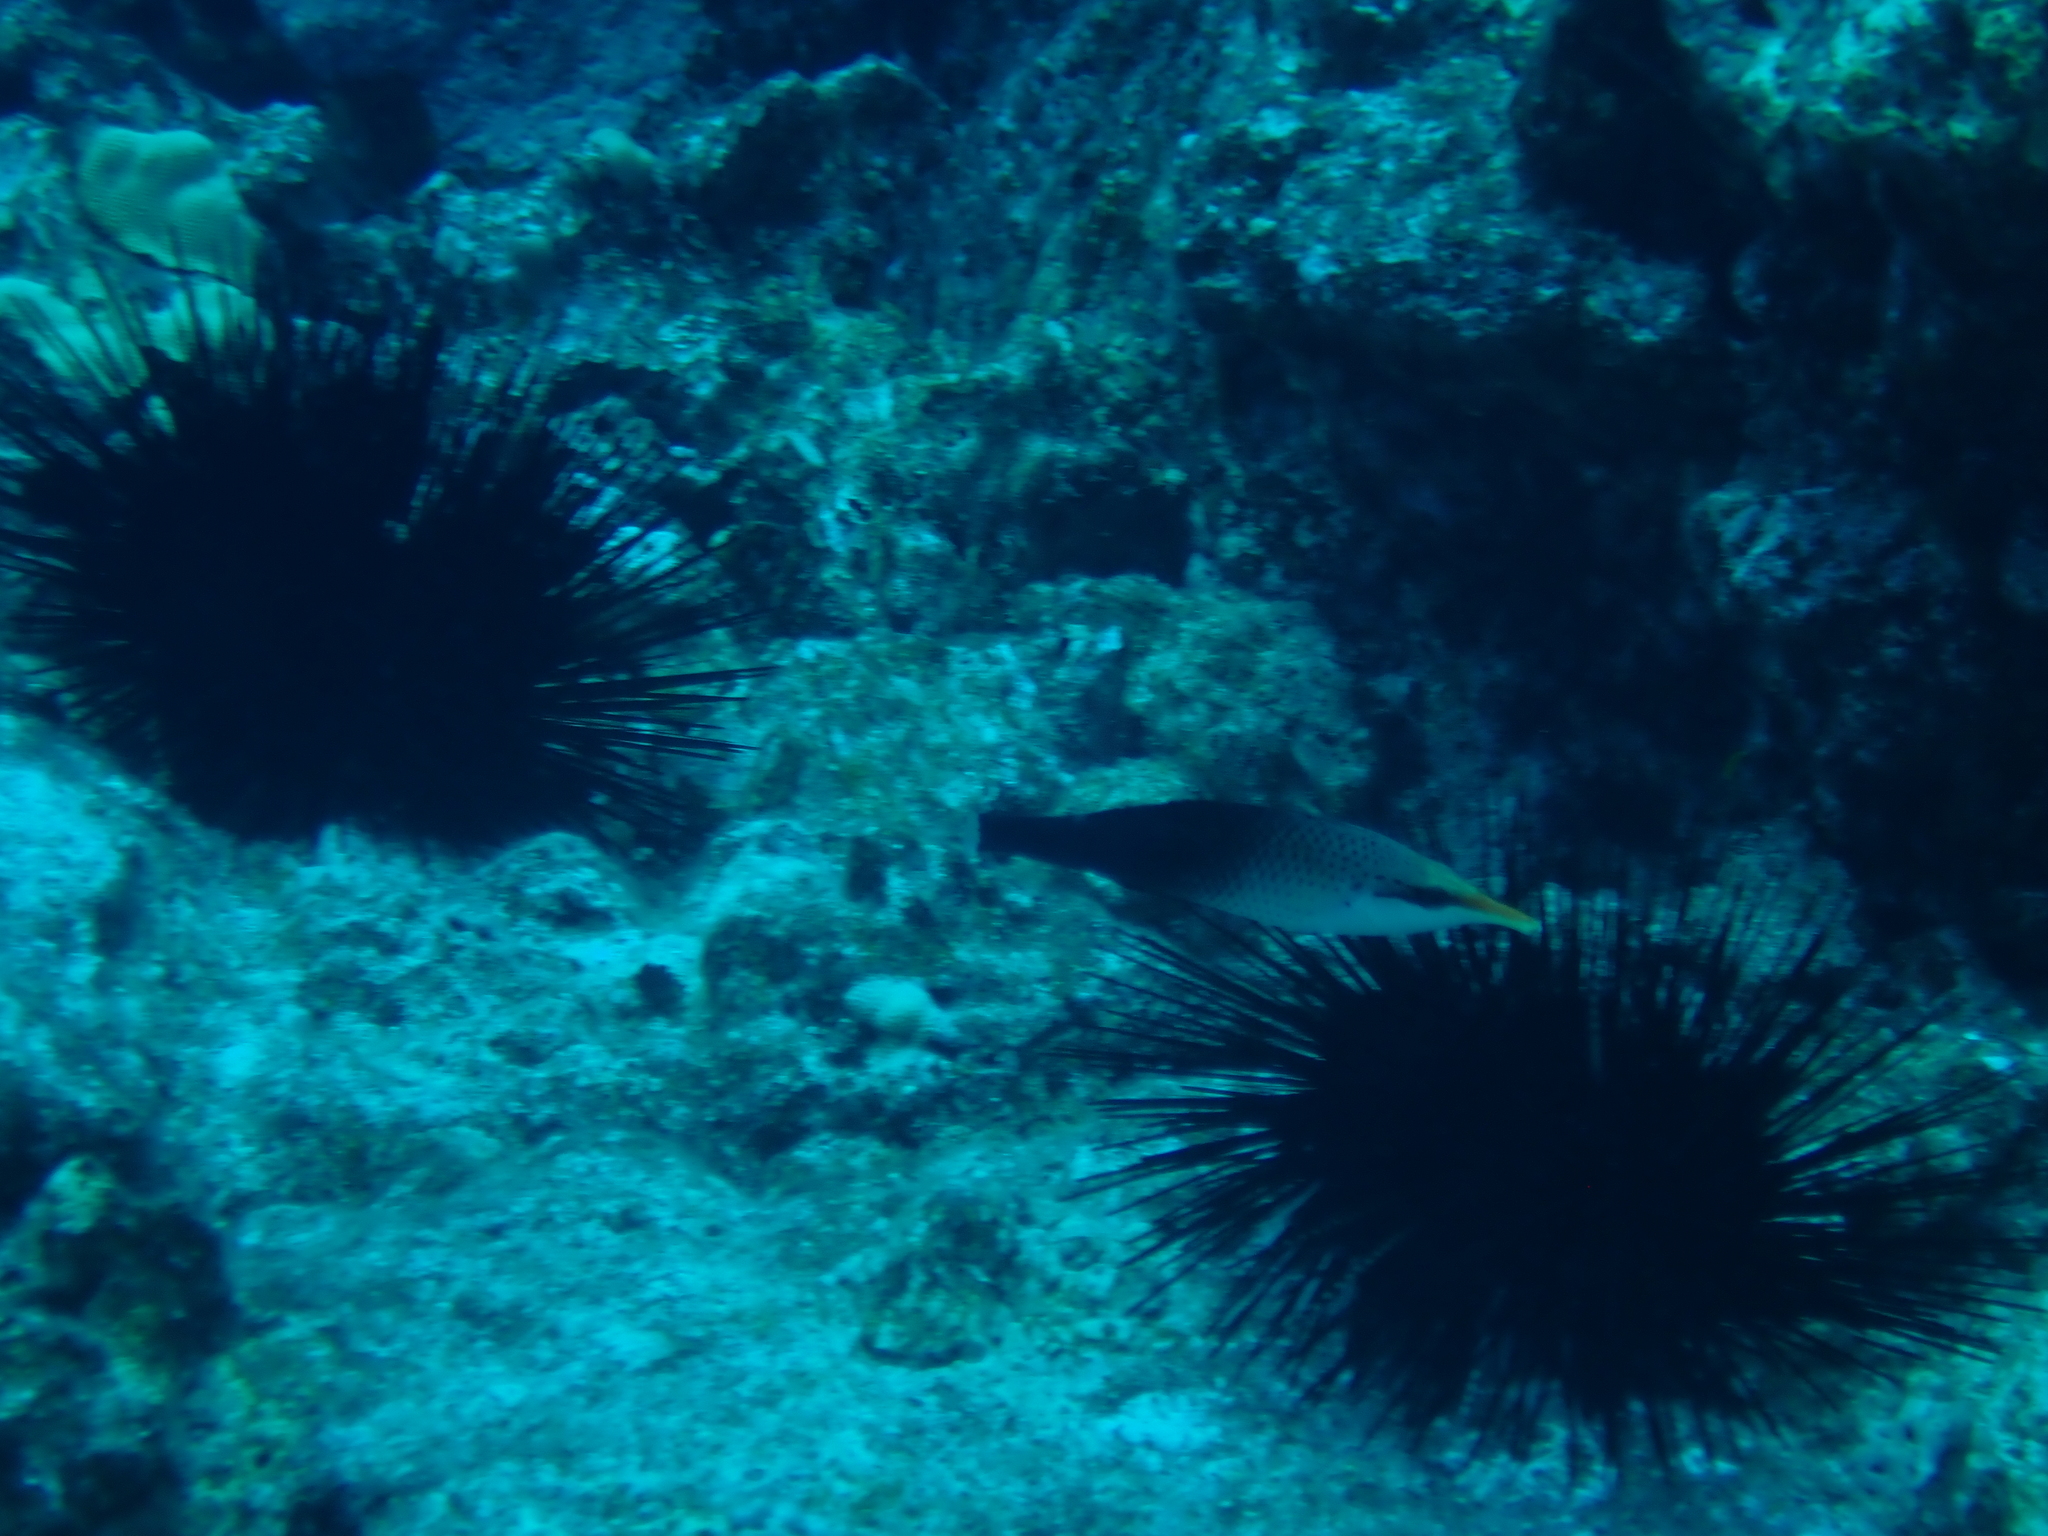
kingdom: Animalia
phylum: Chordata
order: Perciformes
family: Labridae
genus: Gomphosus
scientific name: Gomphosus varius
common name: Bird wrasse
